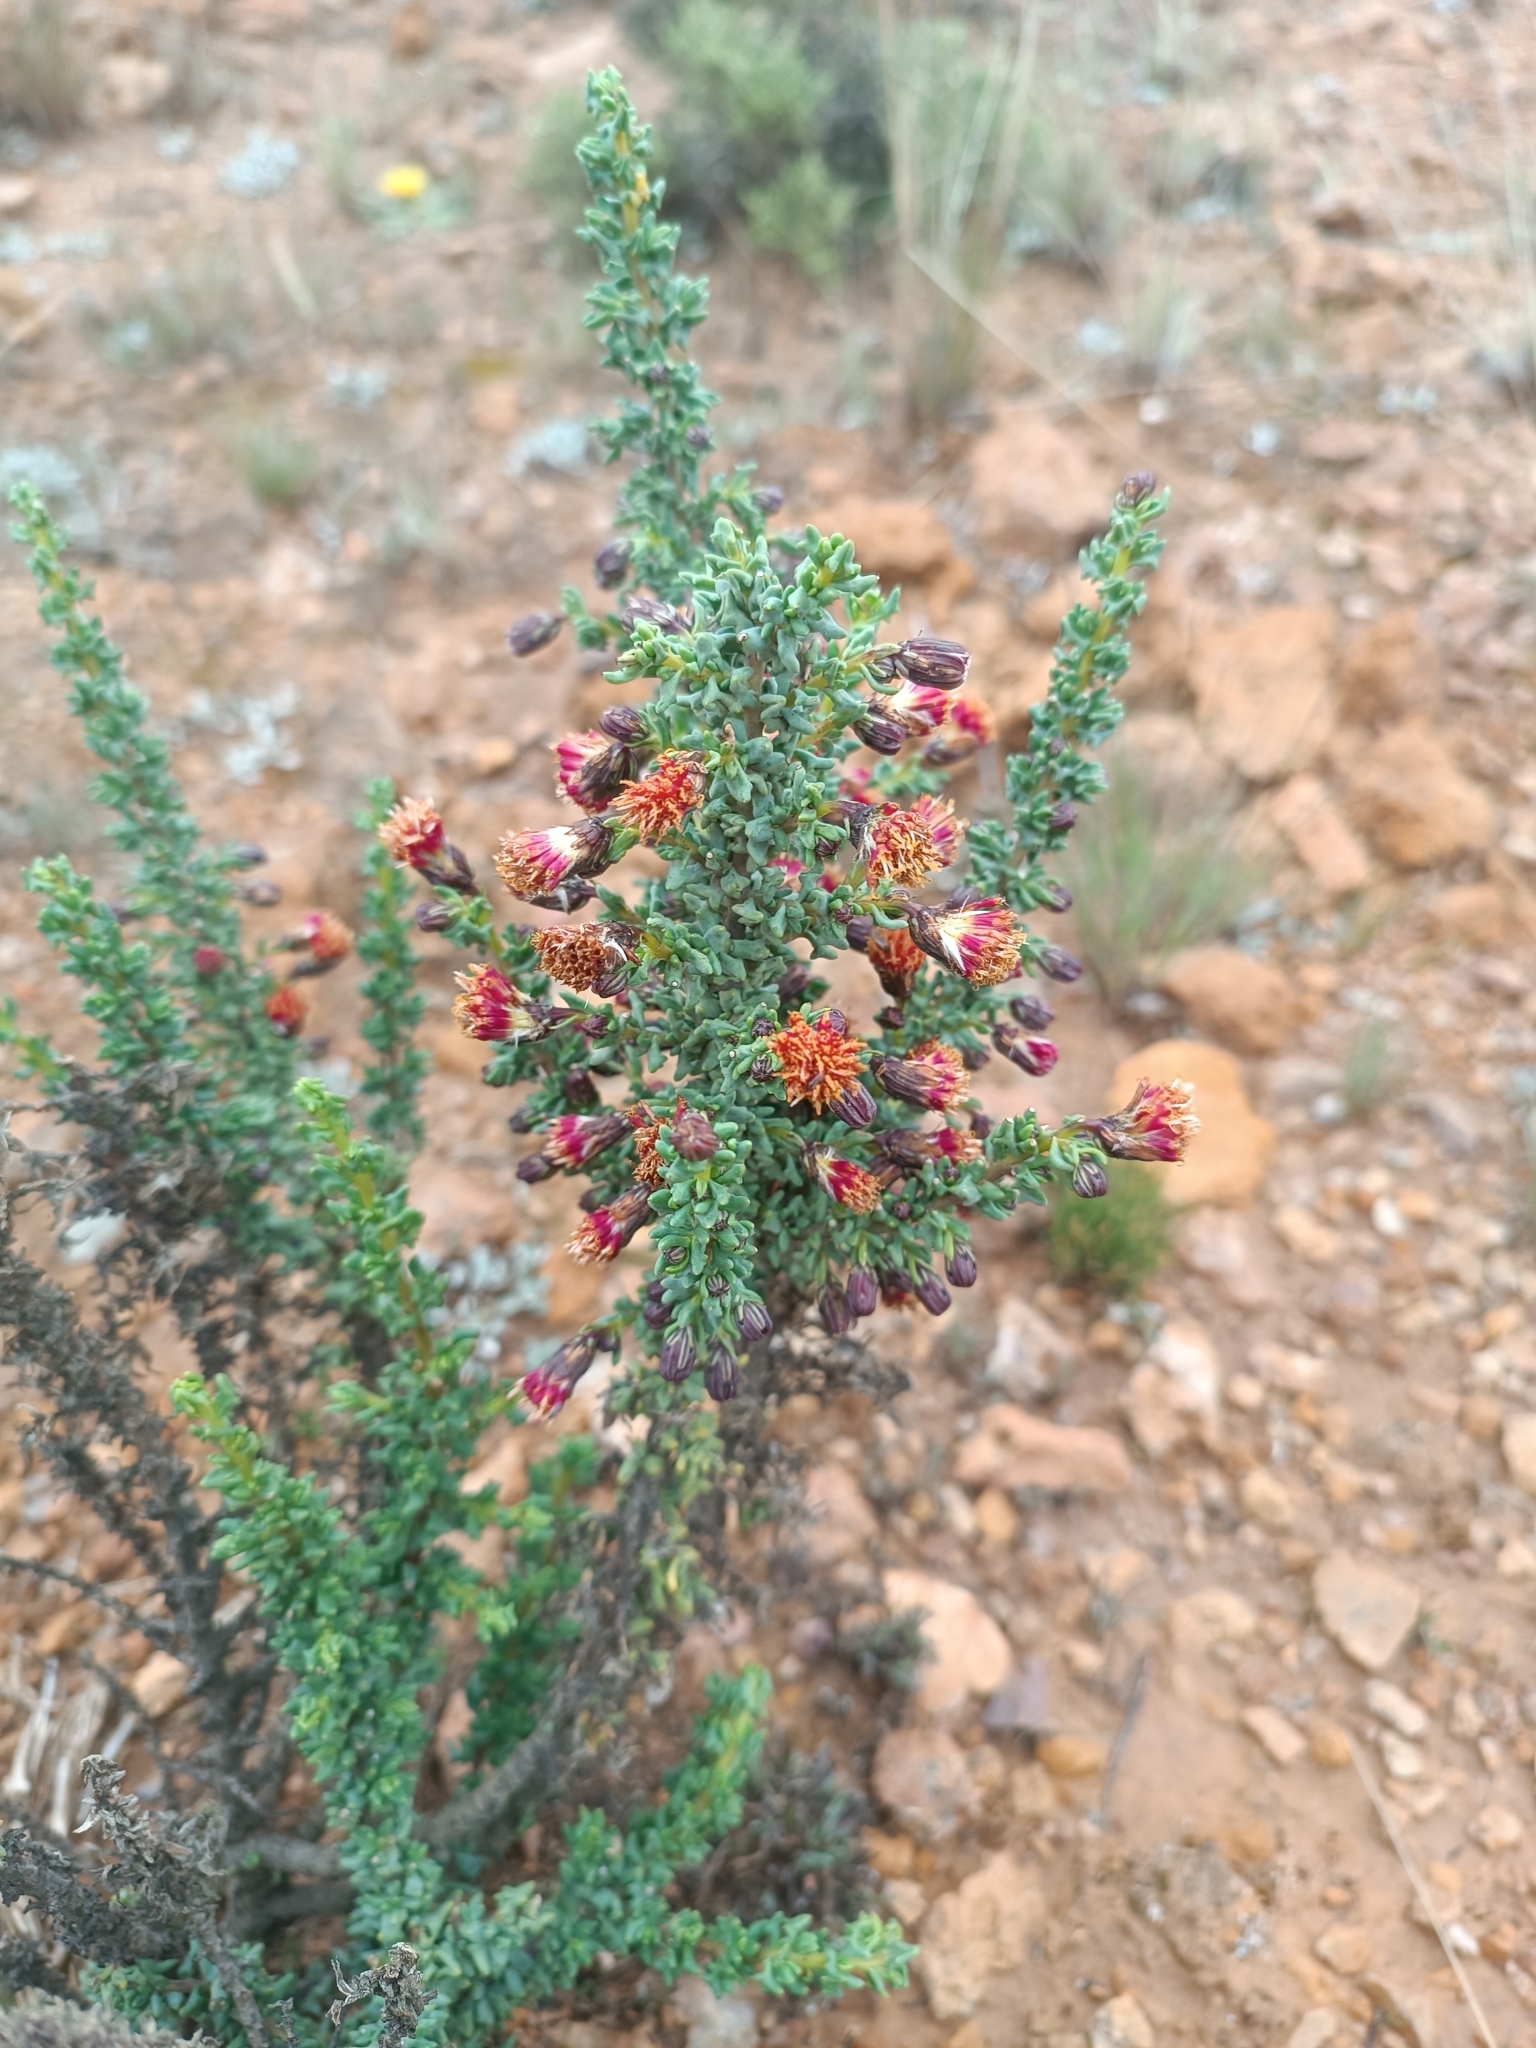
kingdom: Plantae
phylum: Tracheophyta
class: Magnoliopsida
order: Asterales
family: Asteraceae
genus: Senecio
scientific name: Senecio nutans
